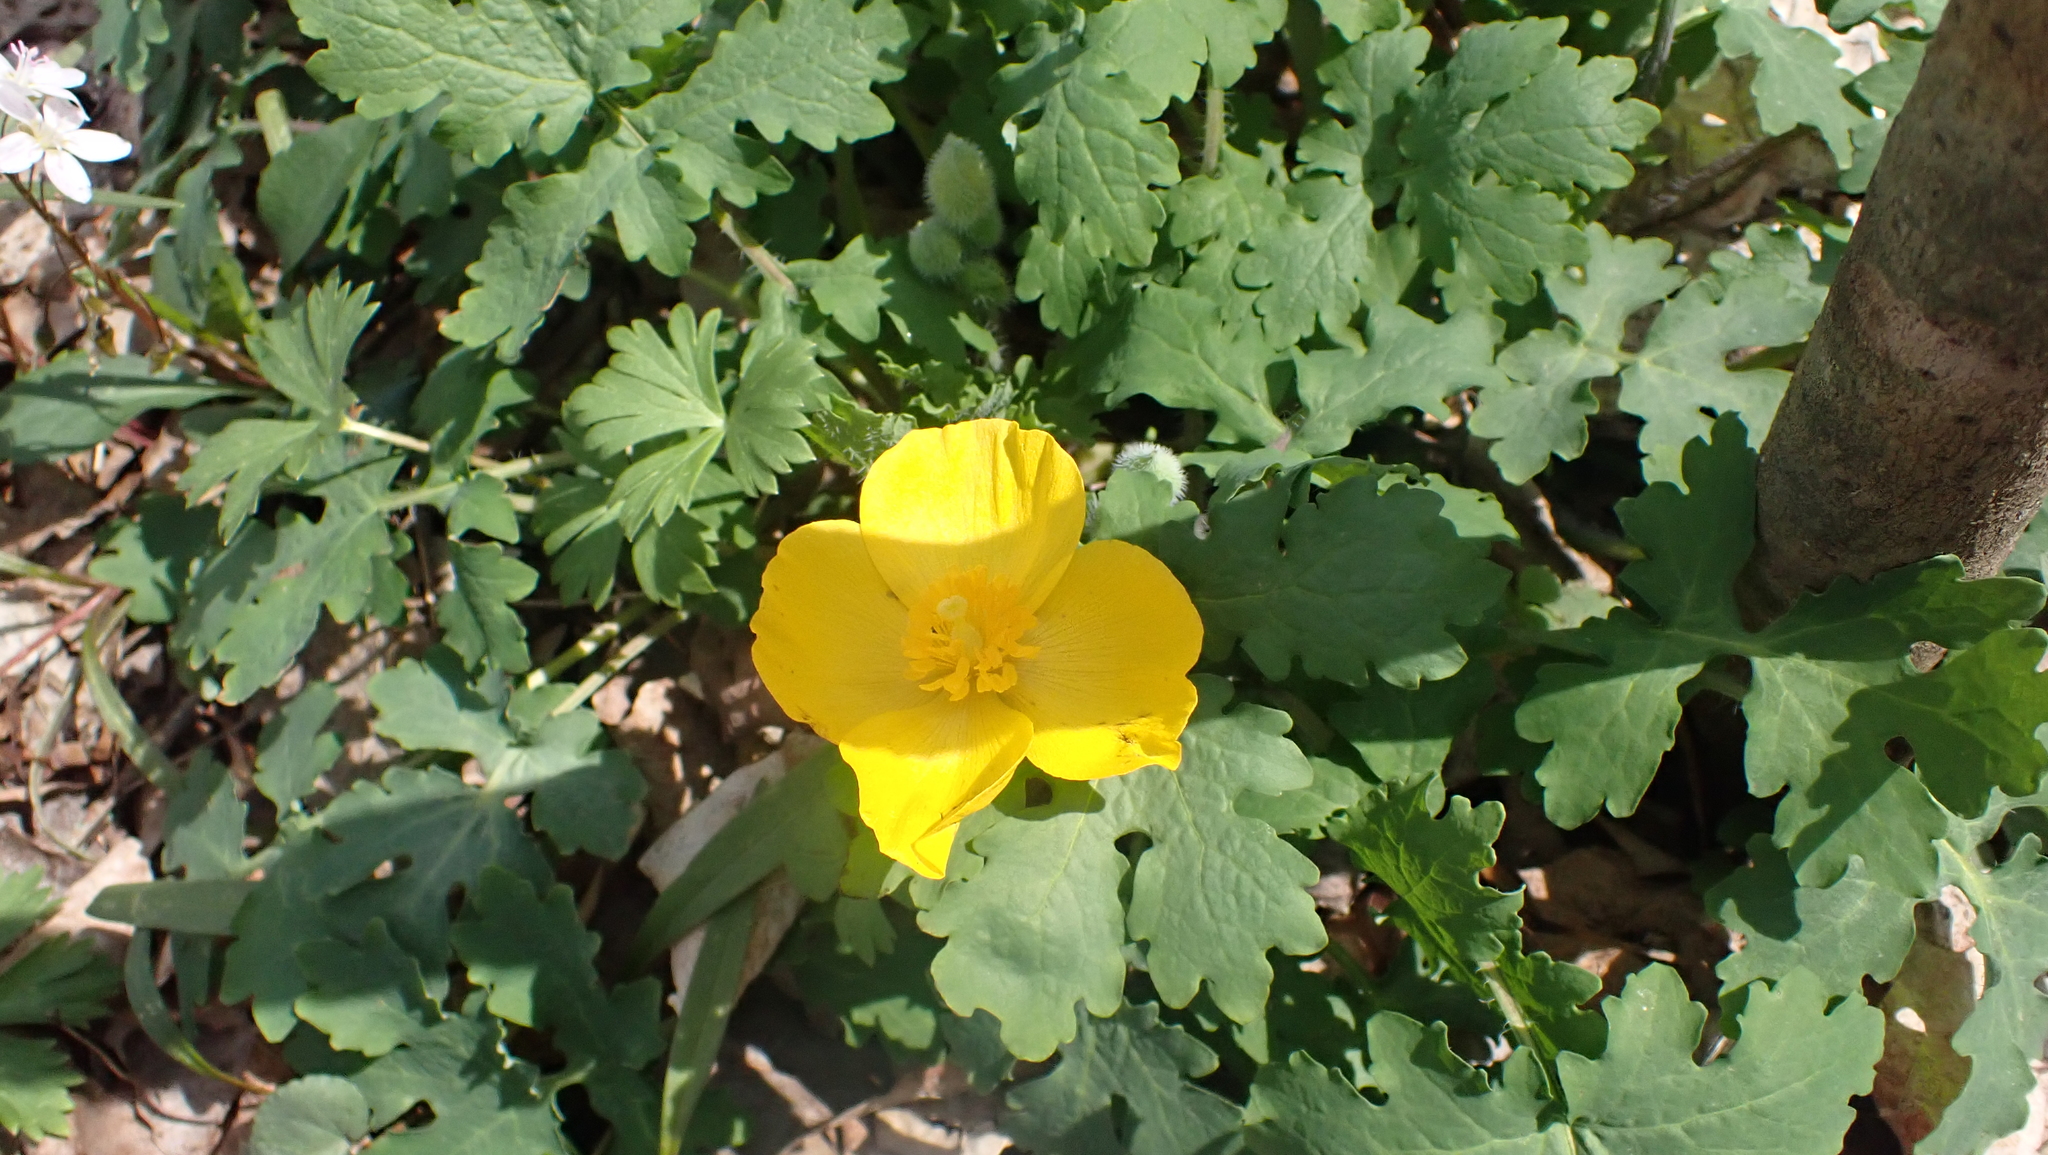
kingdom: Plantae
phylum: Tracheophyta
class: Magnoliopsida
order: Ranunculales
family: Papaveraceae
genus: Stylophorum
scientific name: Stylophorum diphyllum
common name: Celandine poppy
